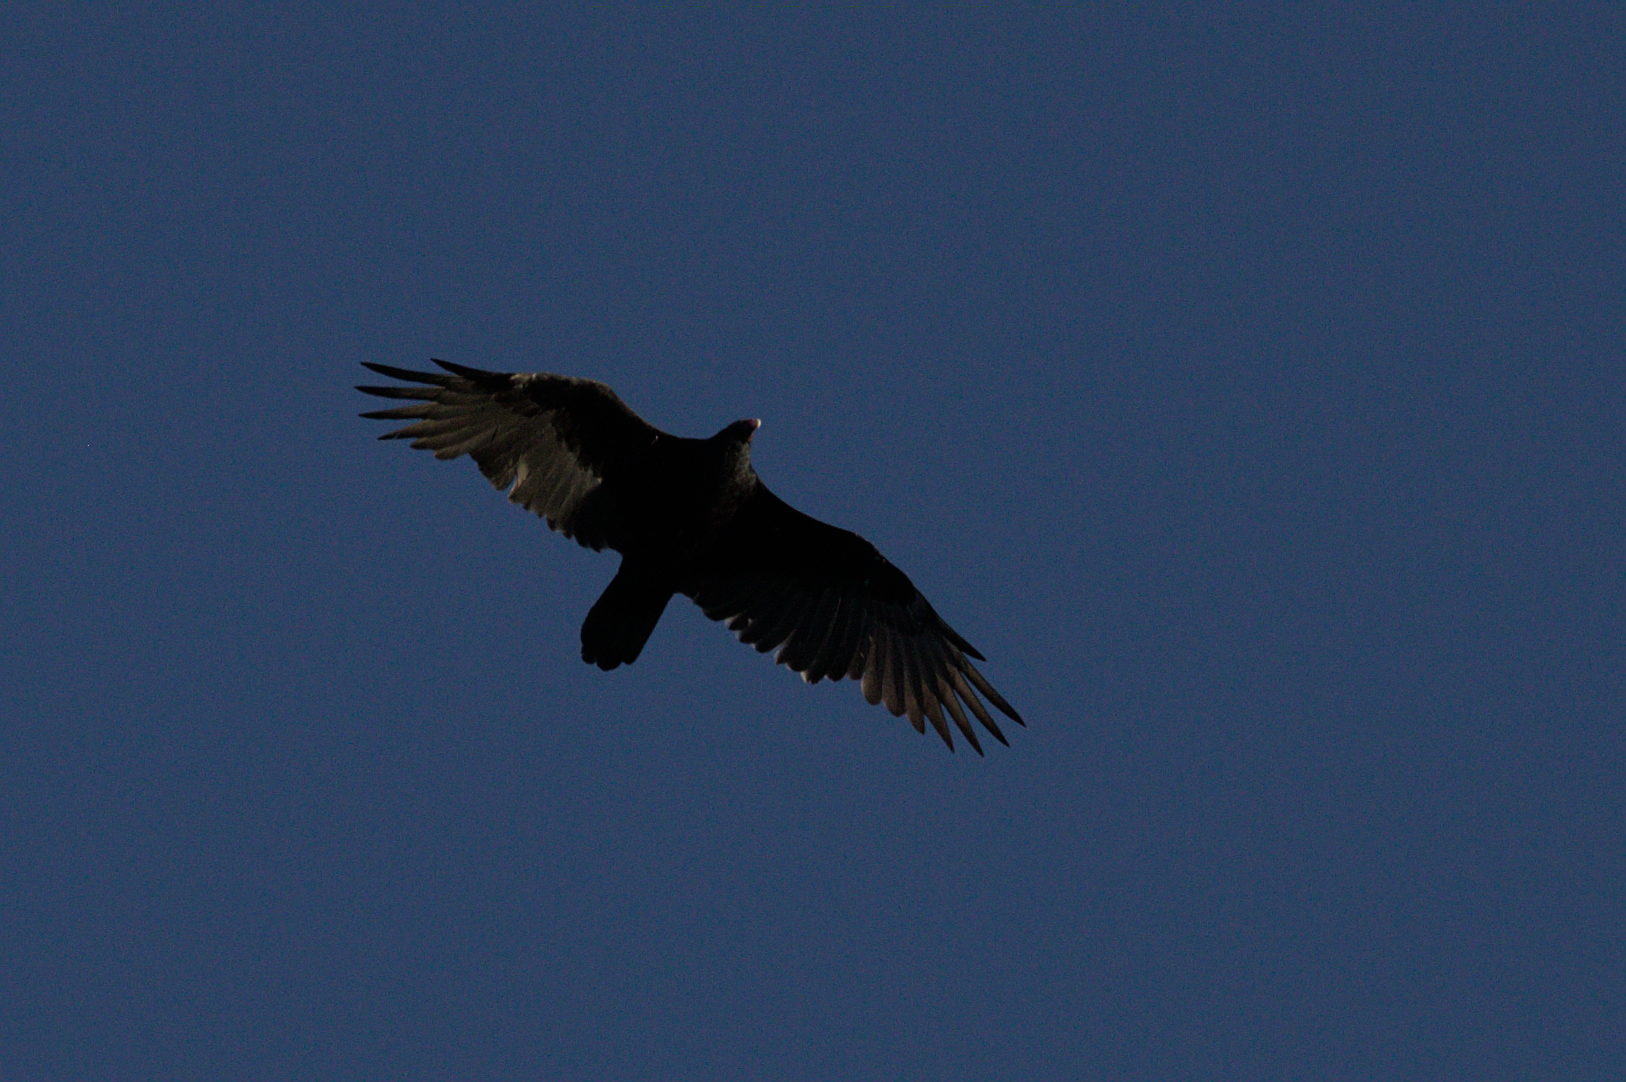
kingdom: Animalia
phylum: Chordata
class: Aves
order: Accipitriformes
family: Cathartidae
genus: Cathartes
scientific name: Cathartes aura
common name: Turkey vulture
